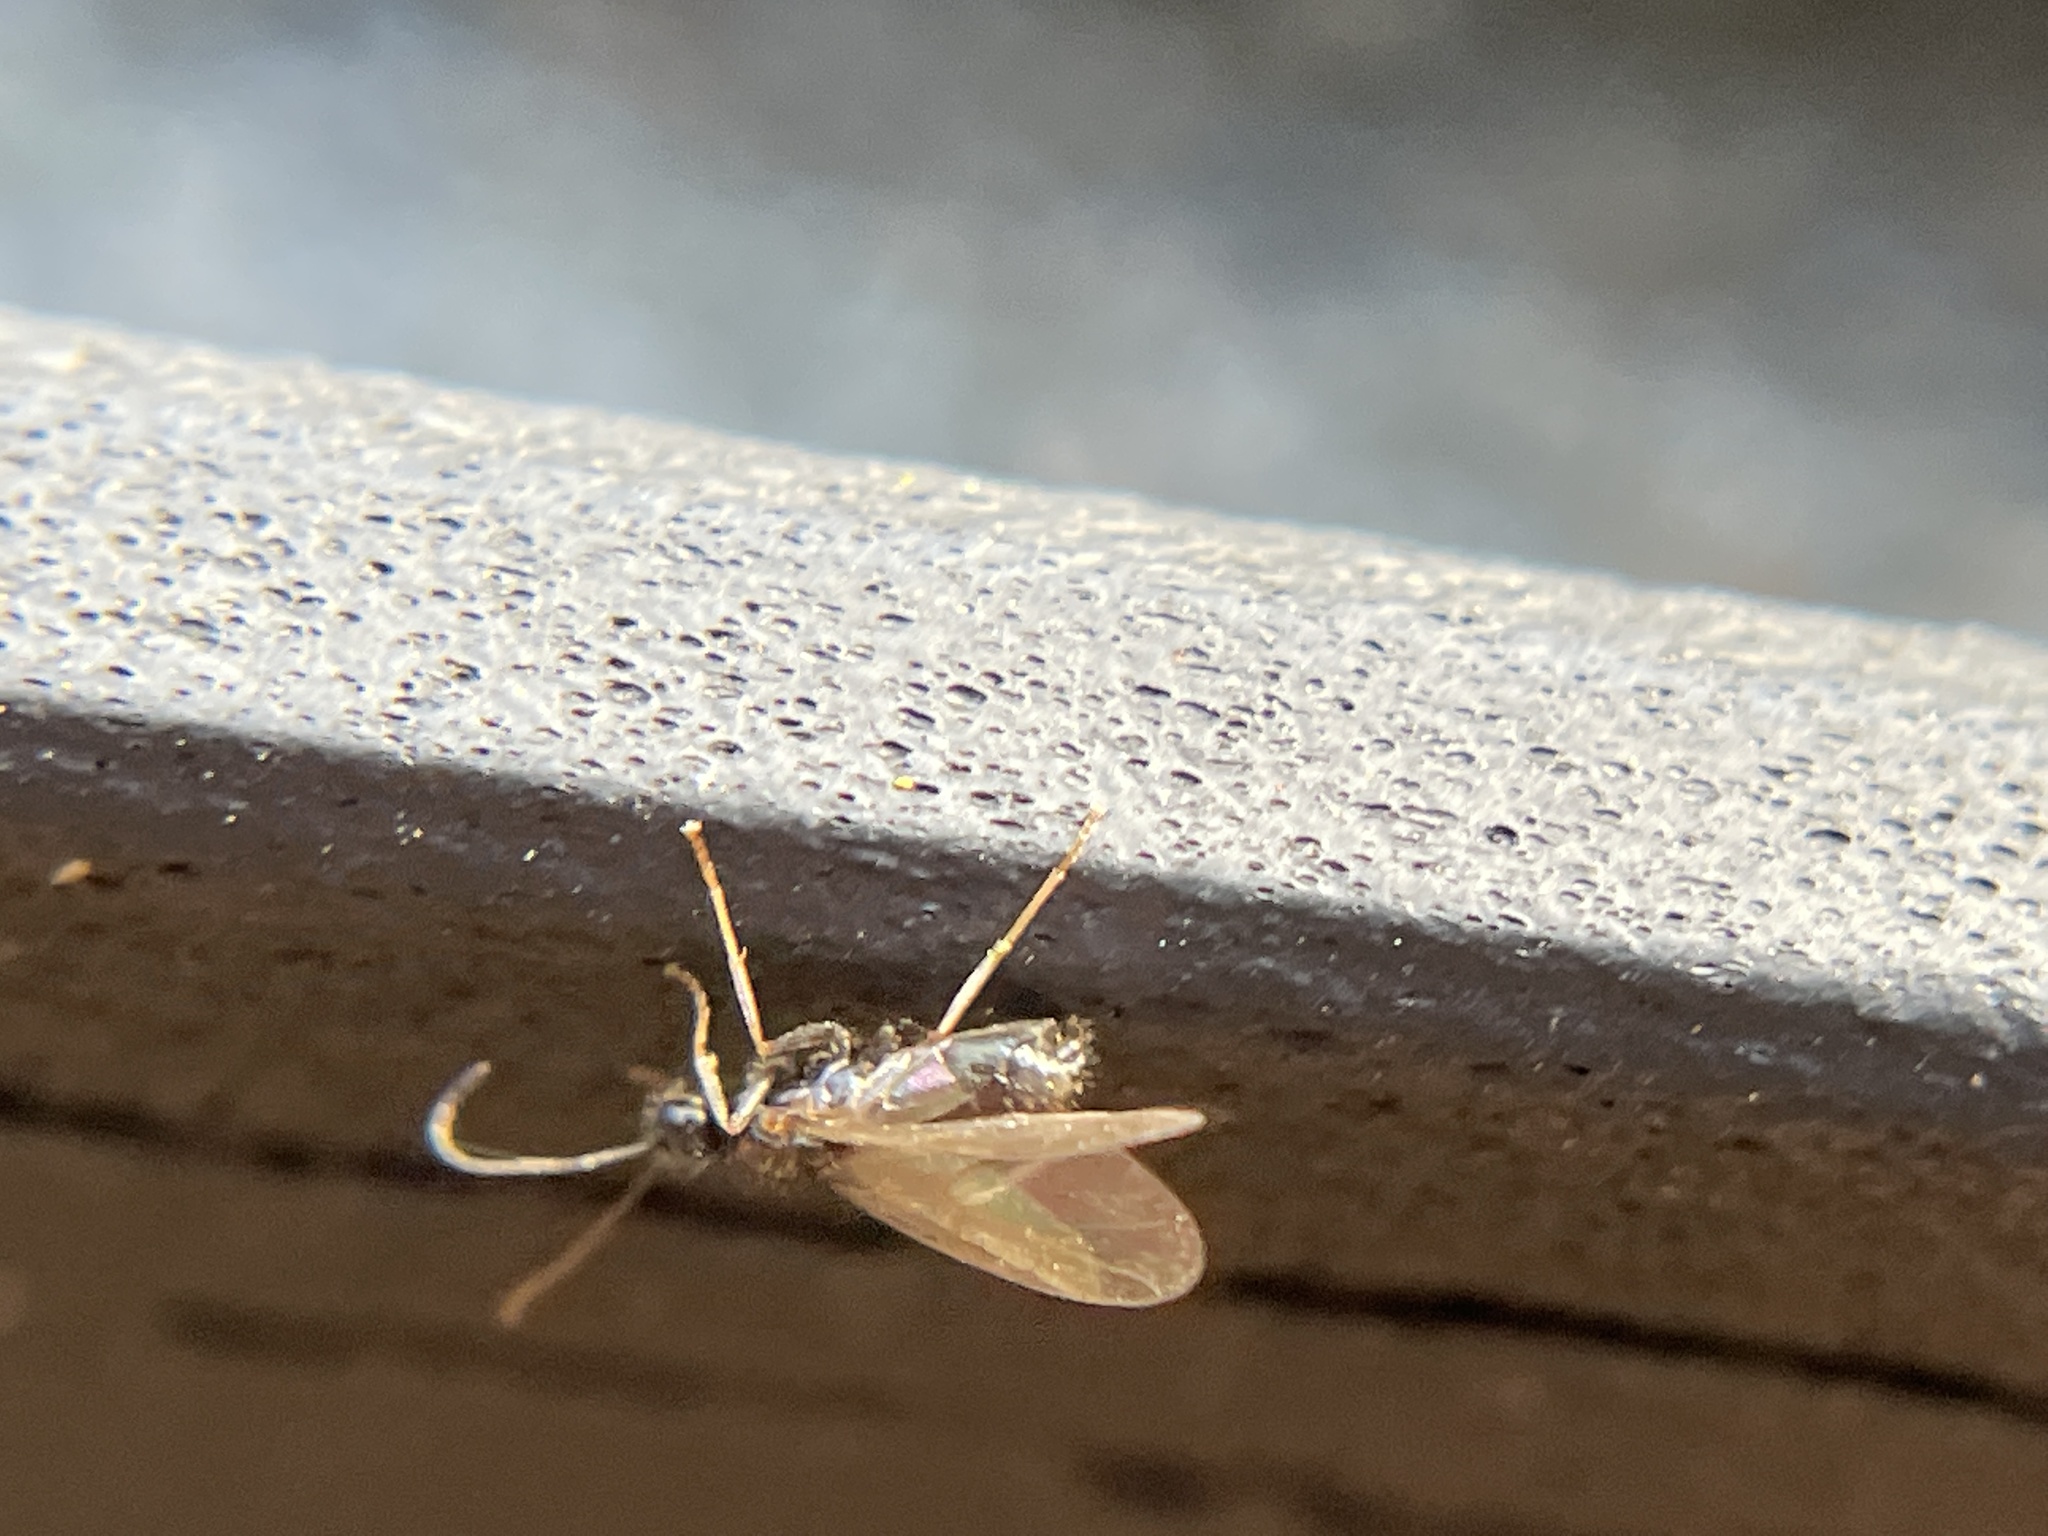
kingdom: Animalia
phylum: Arthropoda
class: Insecta
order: Hymenoptera
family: Formicidae
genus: Prenolepis
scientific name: Prenolepis imparis
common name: Small honey ant
